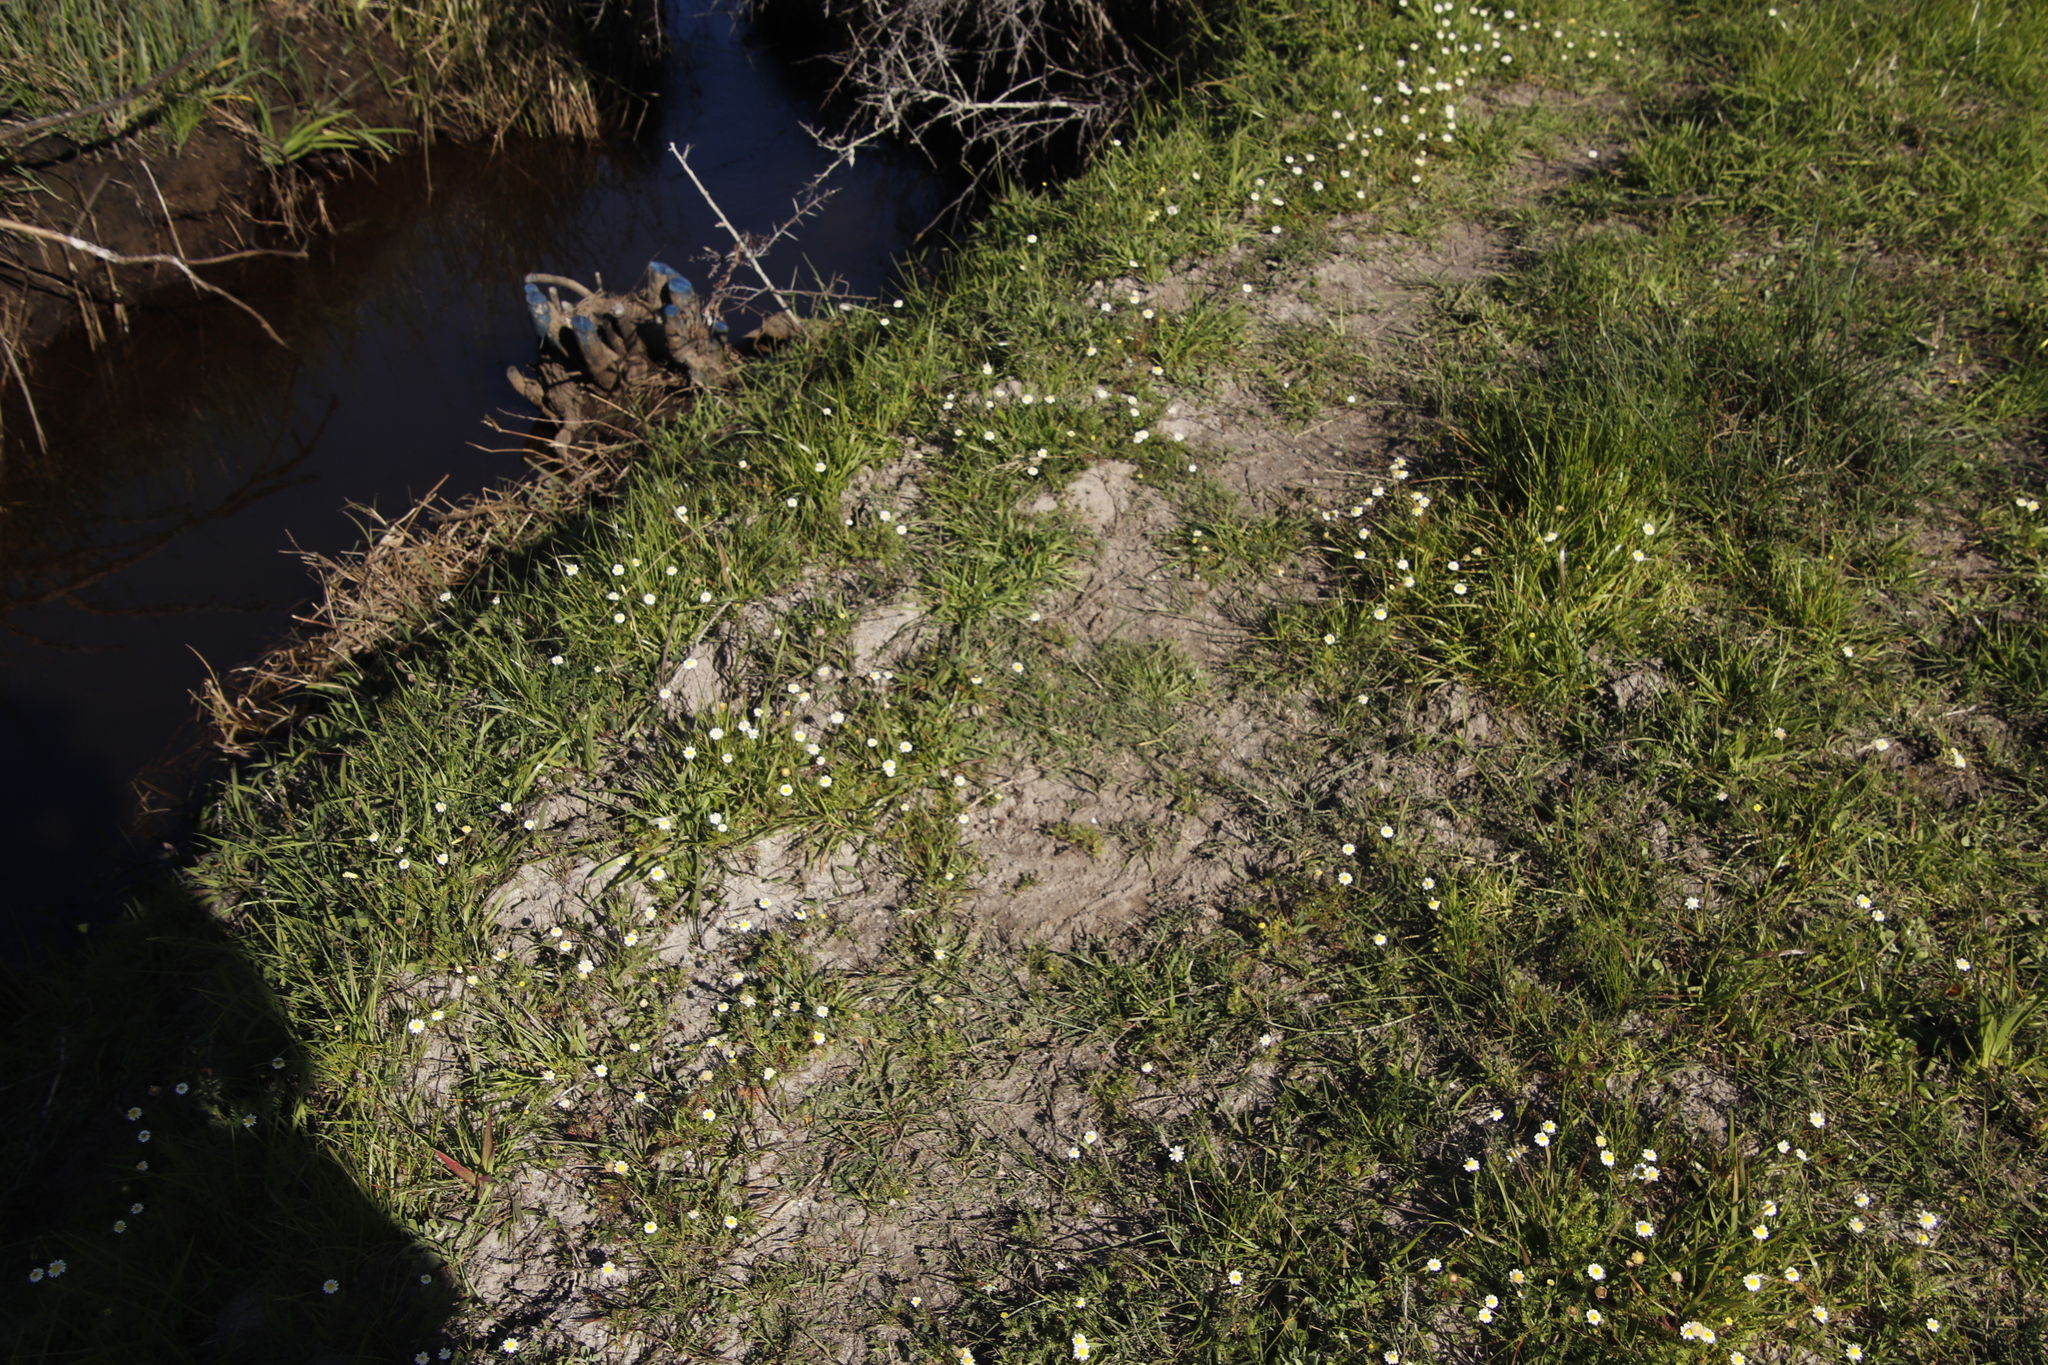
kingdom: Plantae
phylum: Tracheophyta
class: Magnoliopsida
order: Asterales
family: Asteraceae
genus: Cotula
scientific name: Cotula turbinata
